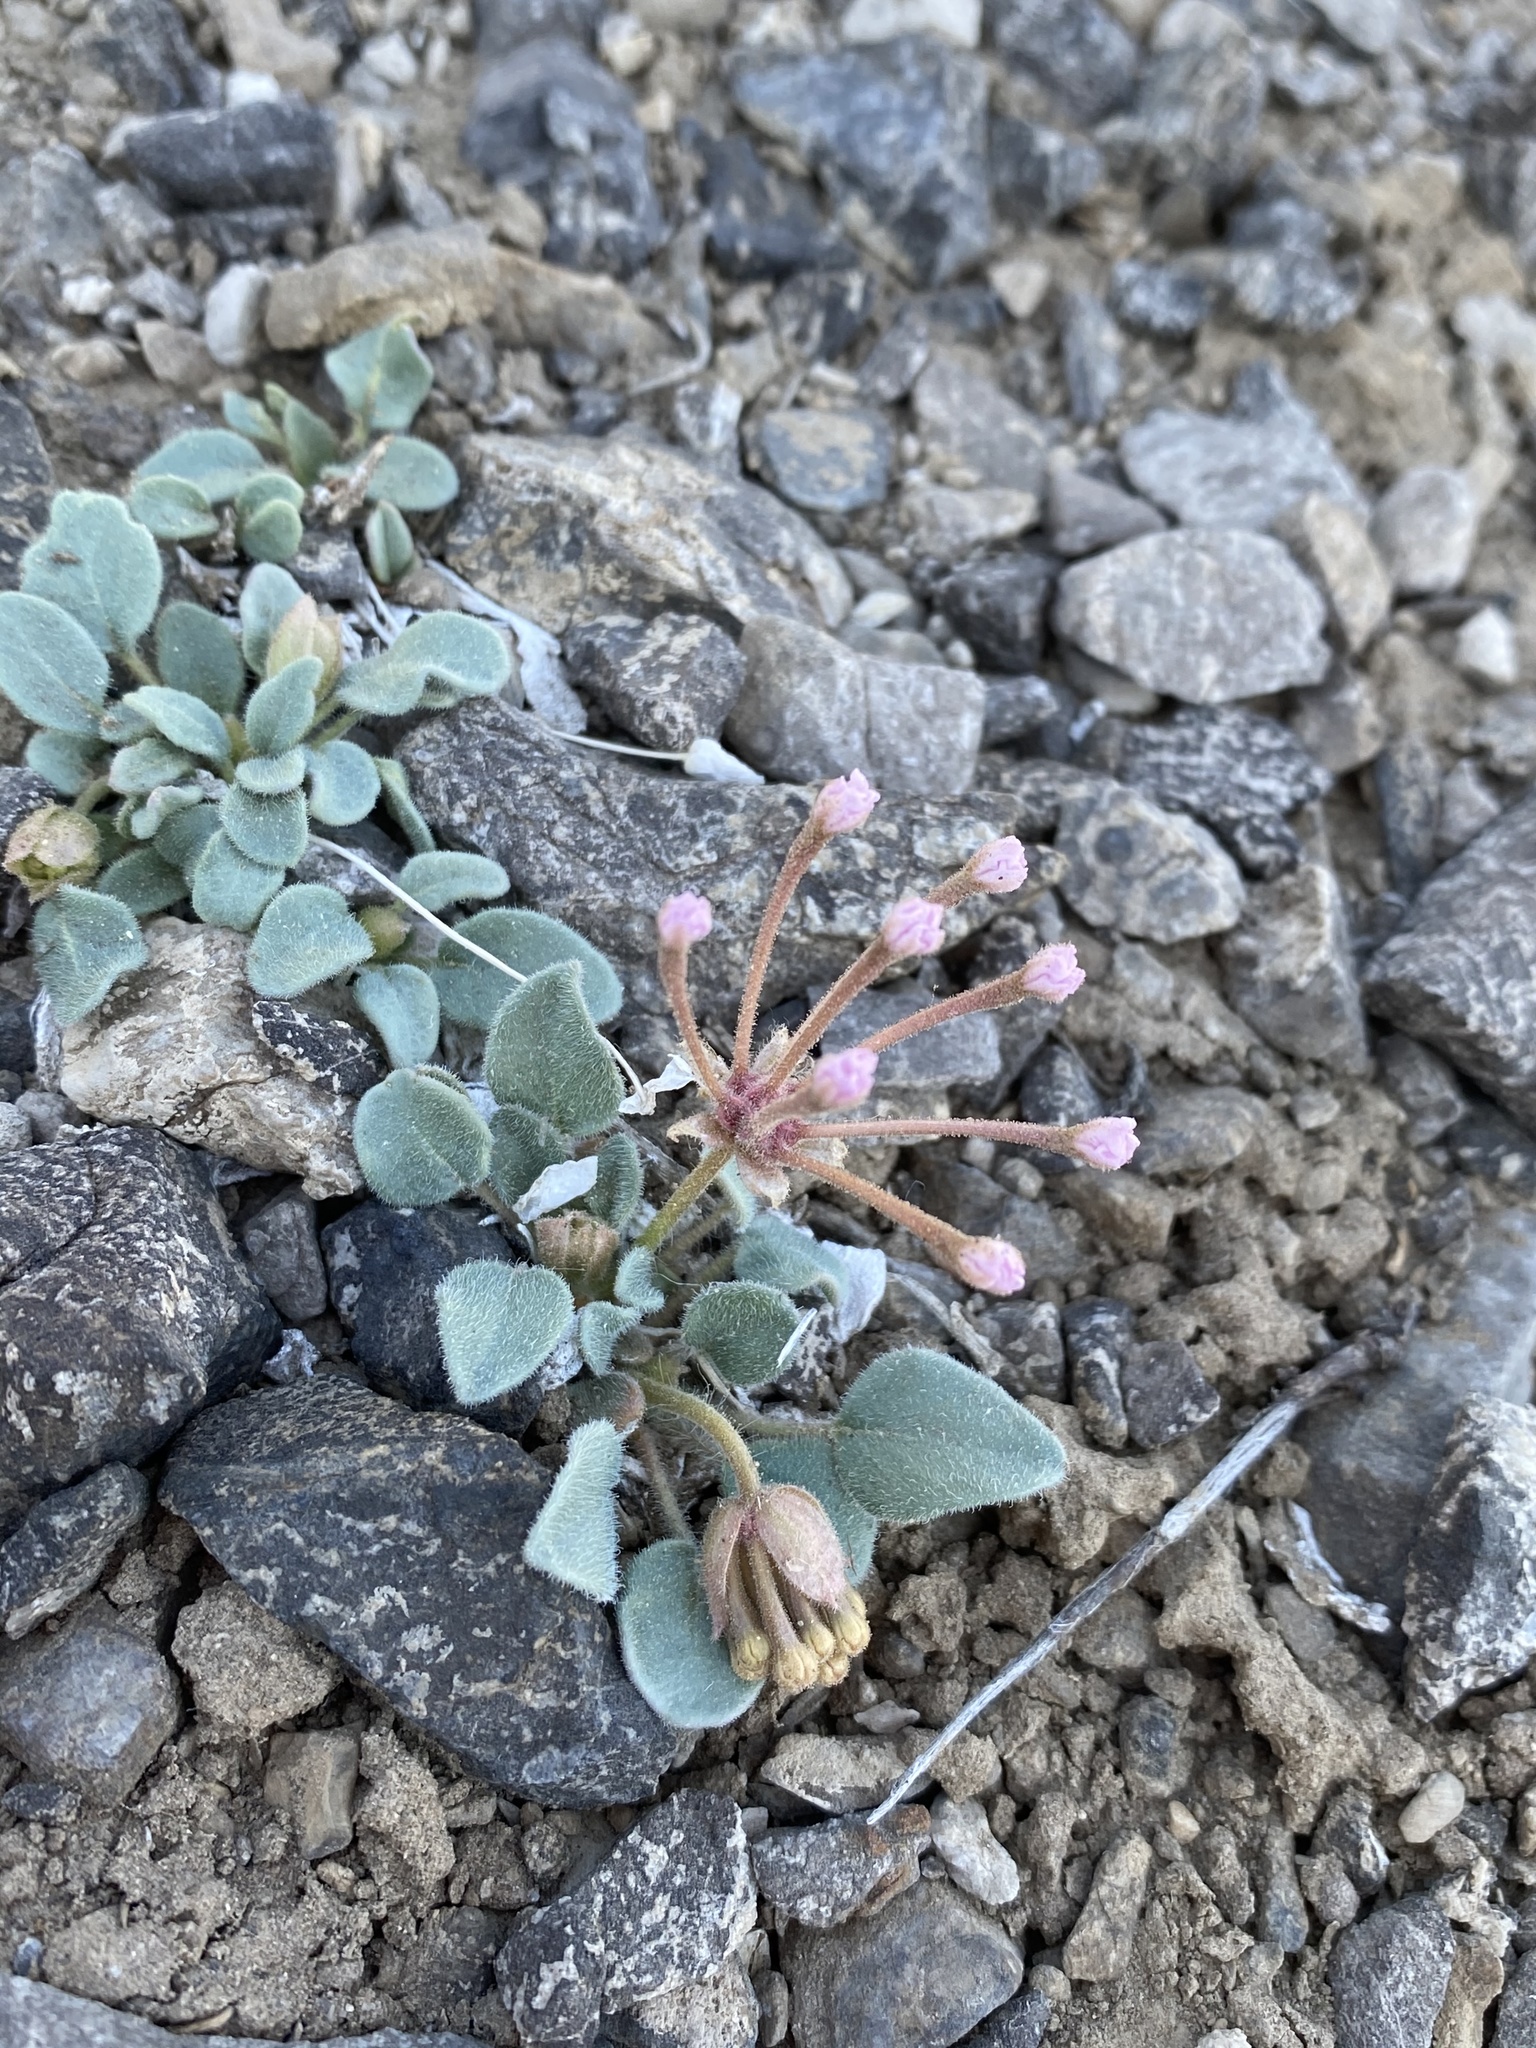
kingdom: Plantae
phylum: Tracheophyta
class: Magnoliopsida
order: Caryophyllales
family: Nyctaginaceae
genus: Abronia
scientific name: Abronia nana
